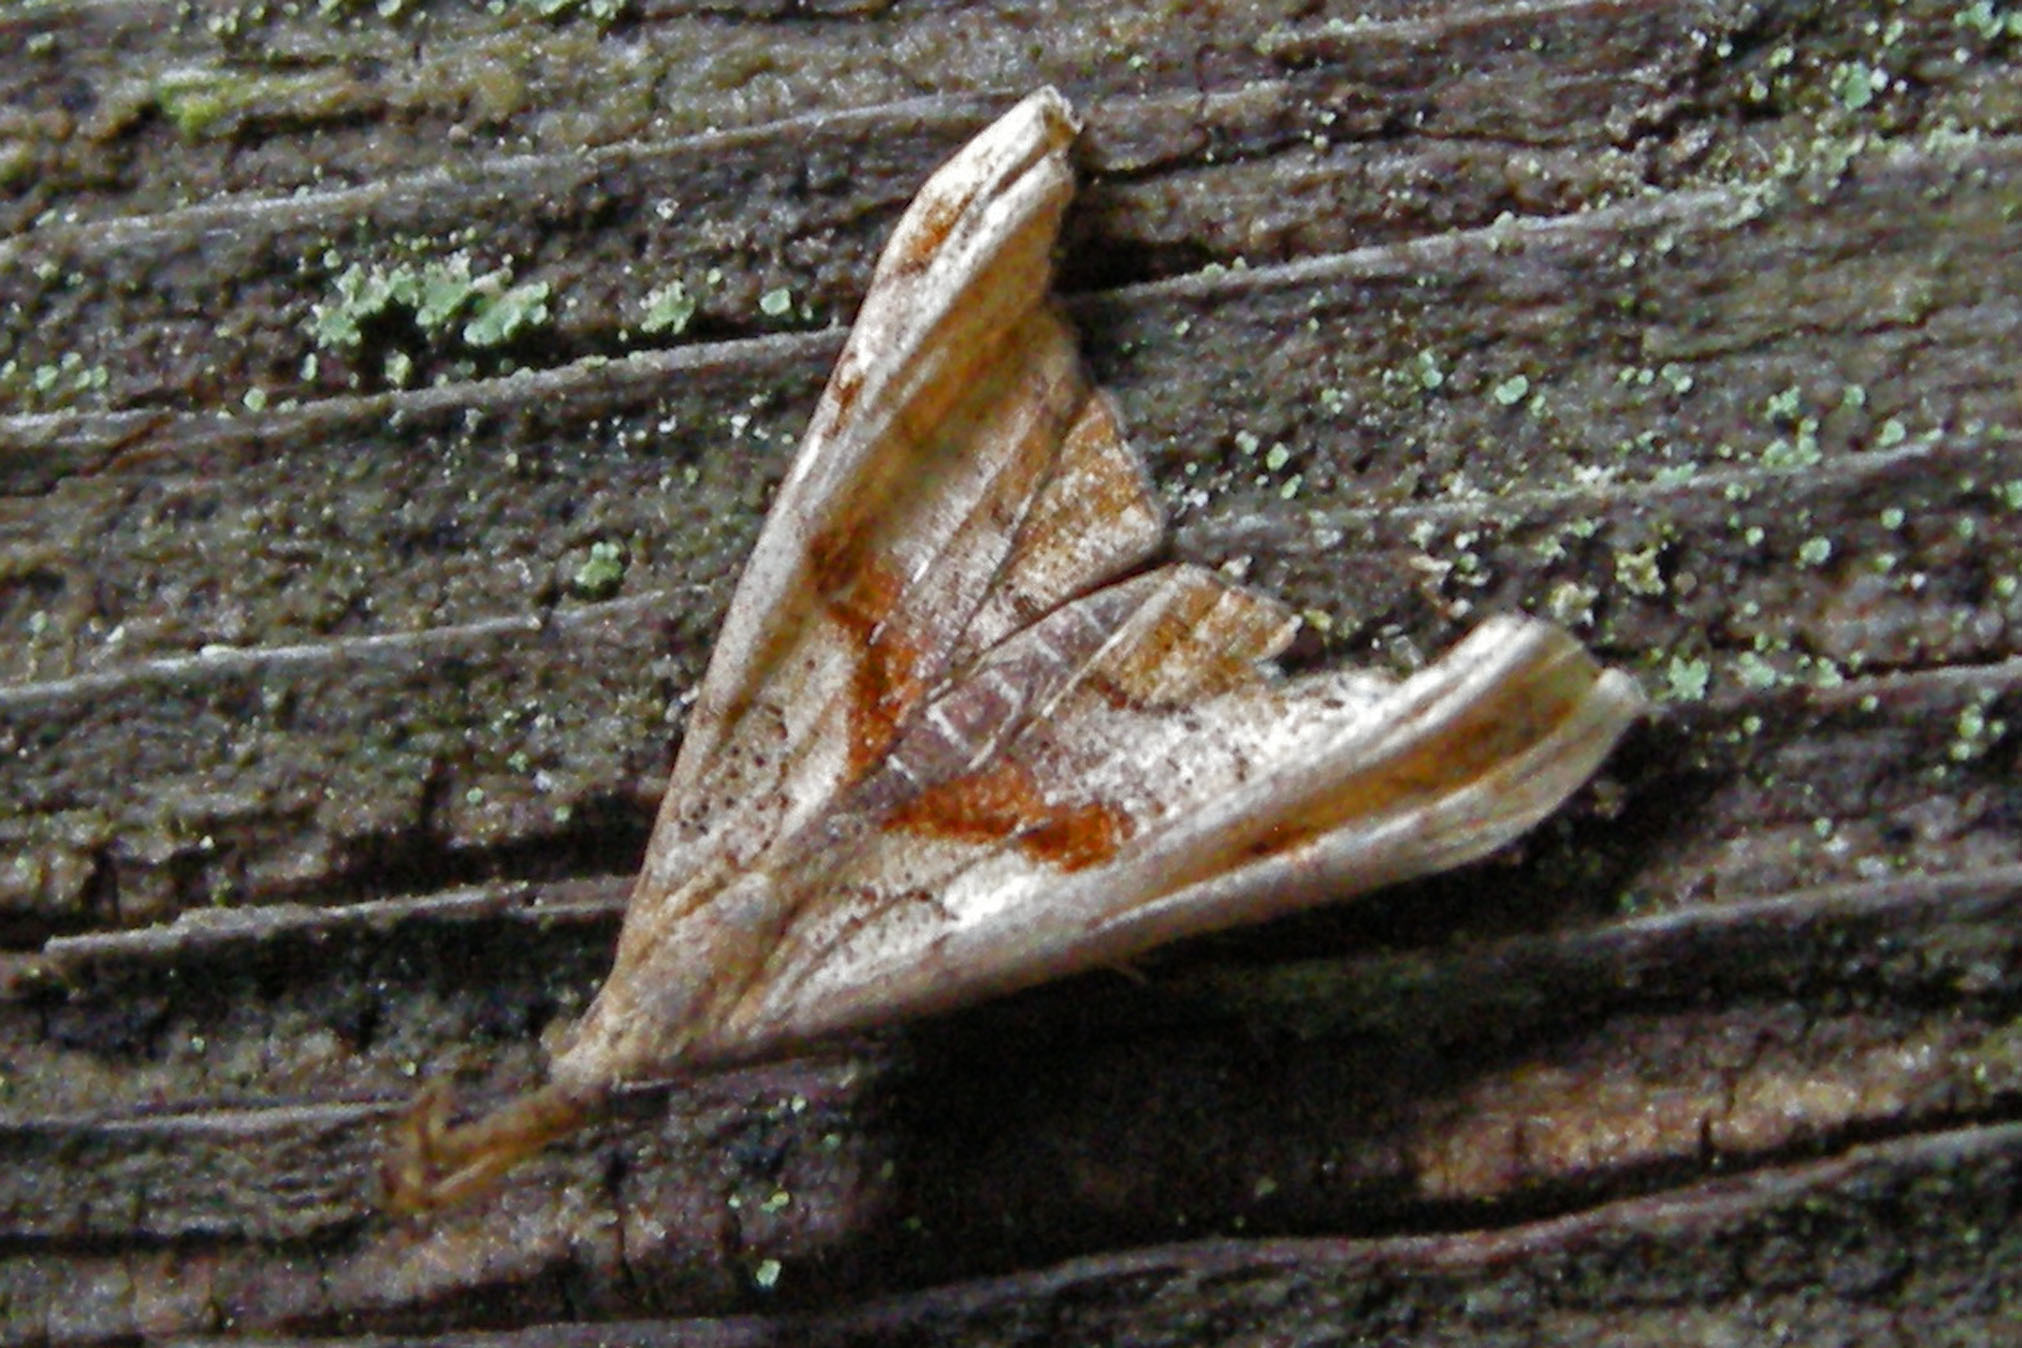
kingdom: Animalia
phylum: Arthropoda
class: Insecta
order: Lepidoptera
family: Erebidae
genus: Palthis
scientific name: Palthis angulalis
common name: Dark-spotted palthis moth
